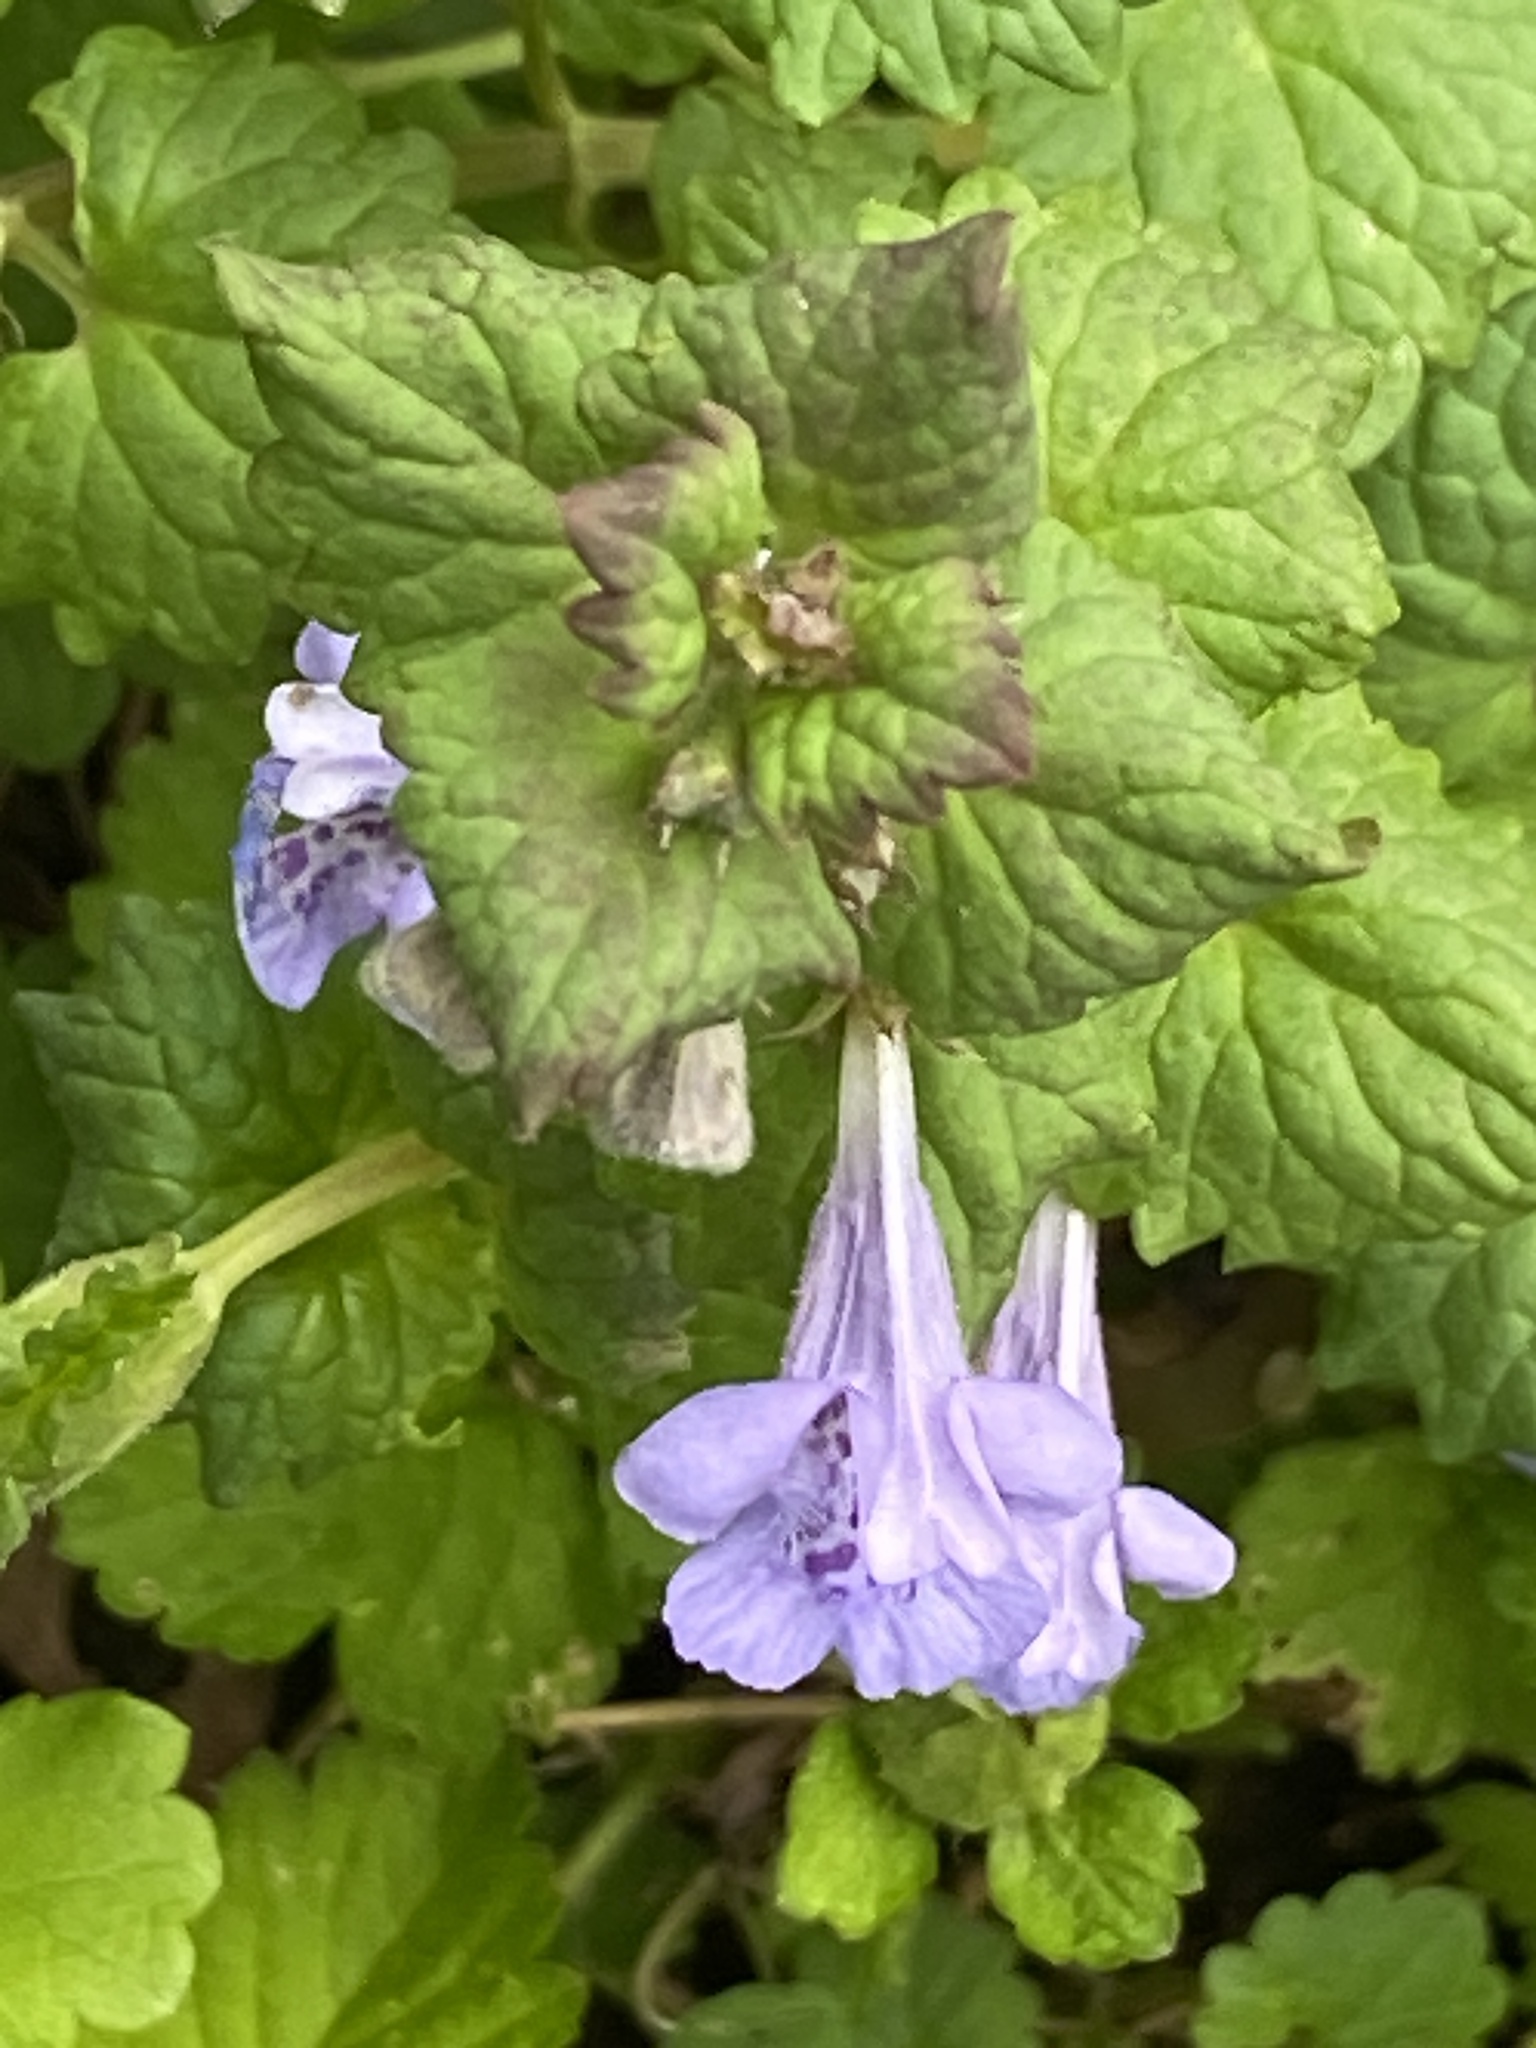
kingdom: Plantae
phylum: Tracheophyta
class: Magnoliopsida
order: Lamiales
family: Lamiaceae
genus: Glechoma
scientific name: Glechoma hederacea
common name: Ground ivy
